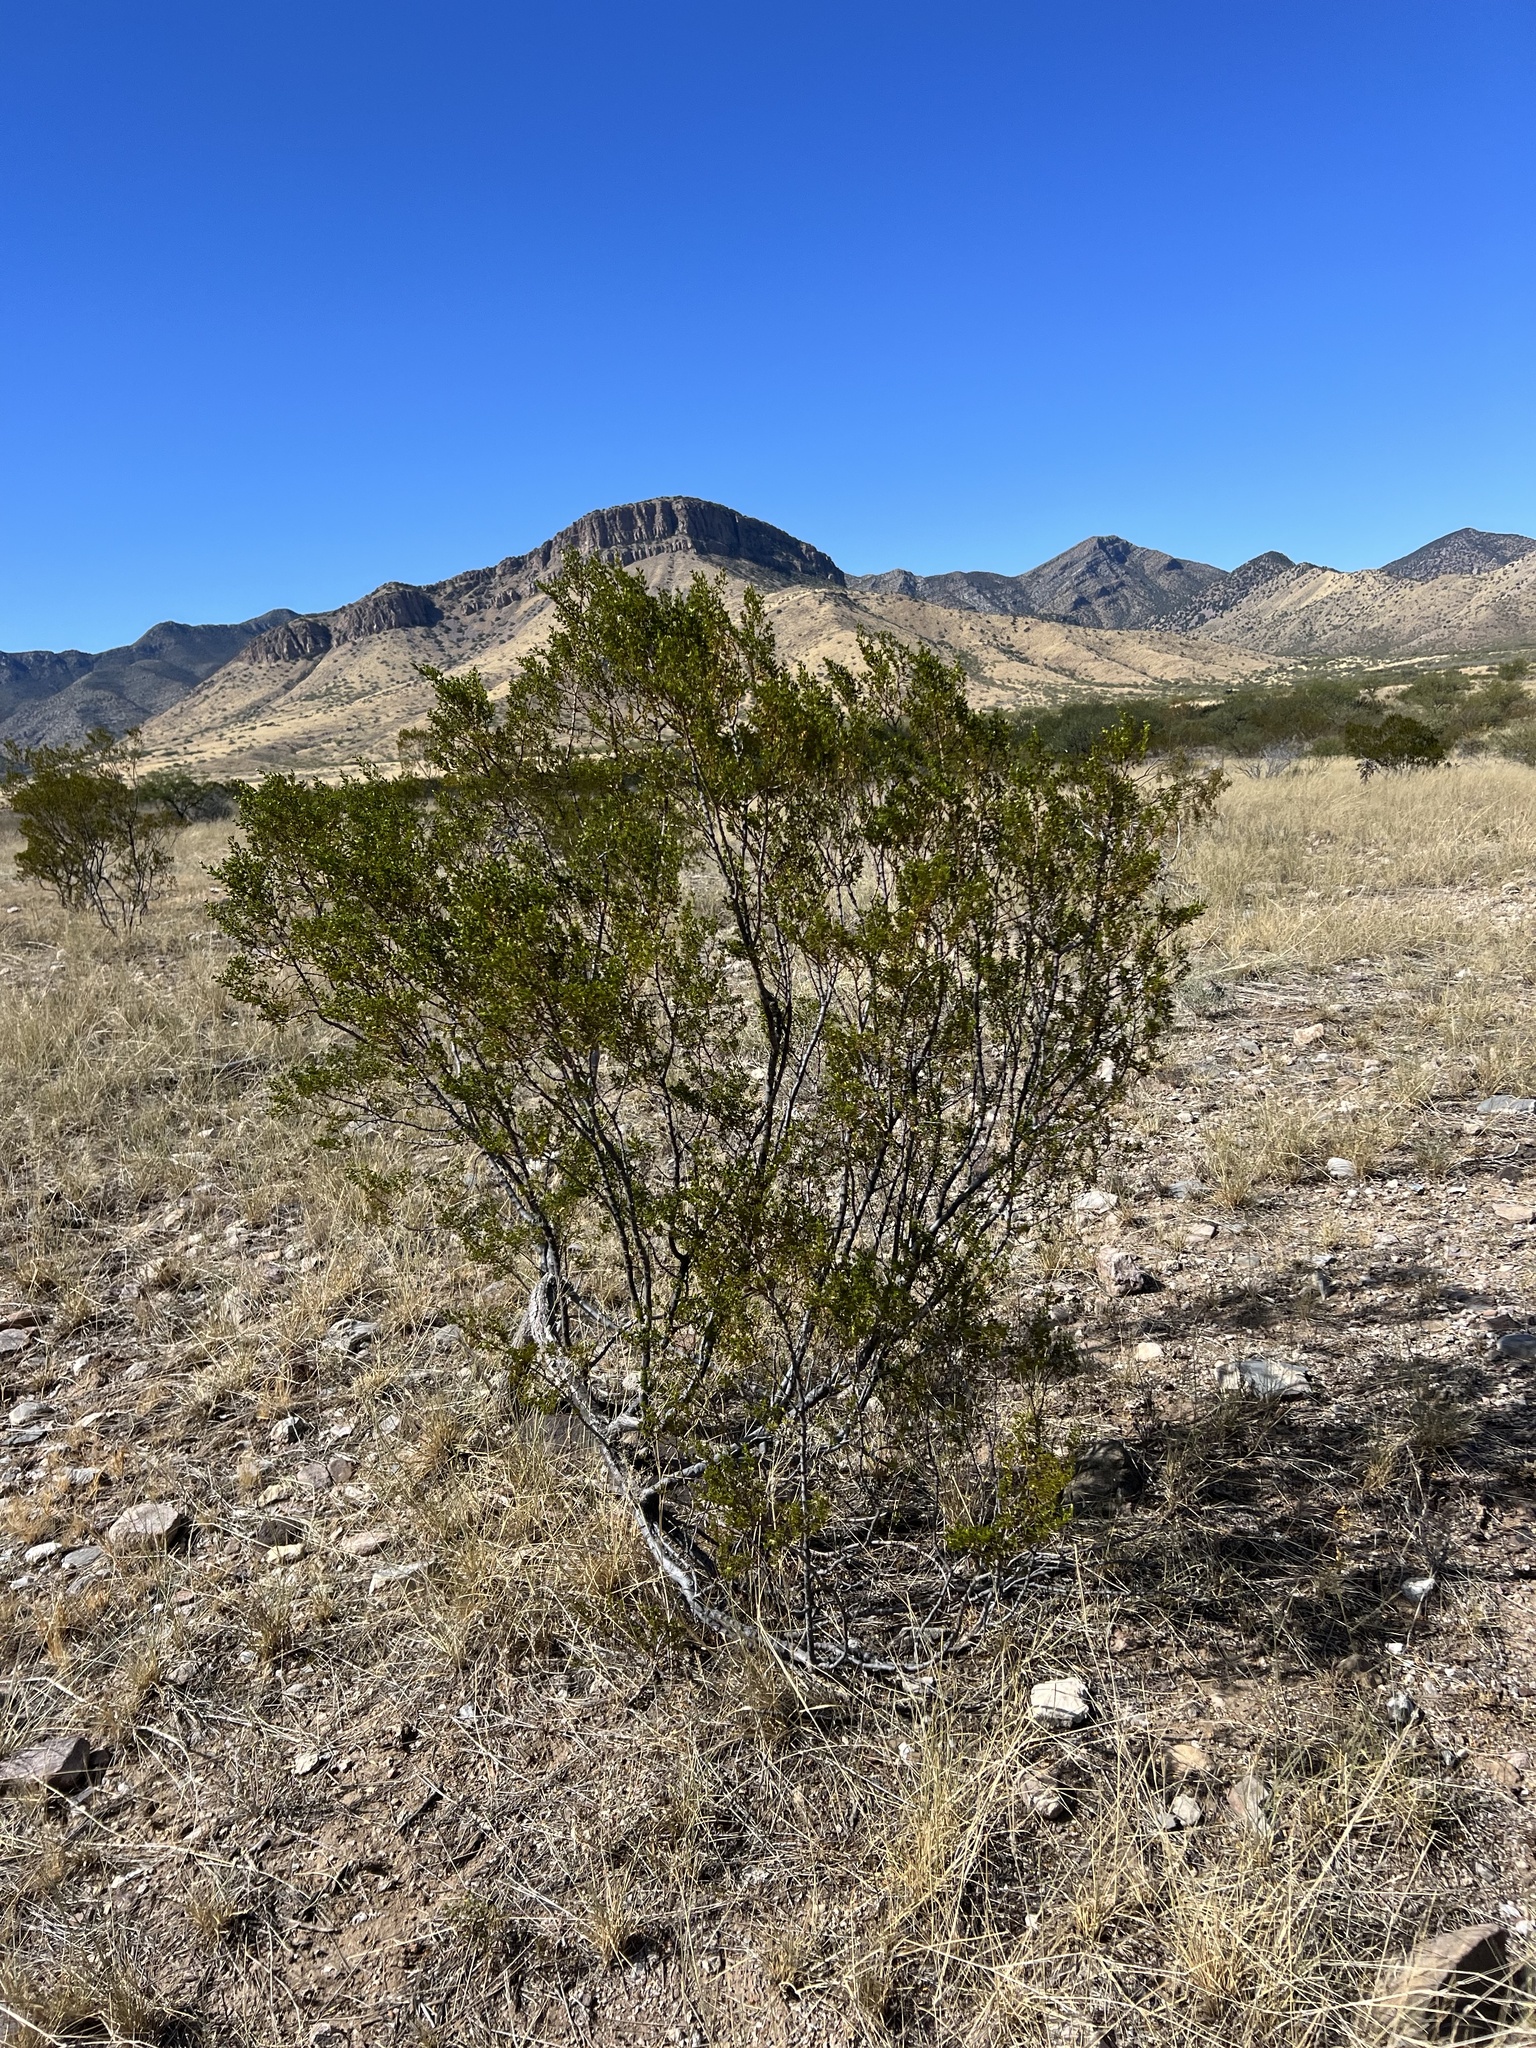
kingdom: Plantae
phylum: Tracheophyta
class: Magnoliopsida
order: Zygophyllales
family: Zygophyllaceae
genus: Larrea
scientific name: Larrea tridentata
